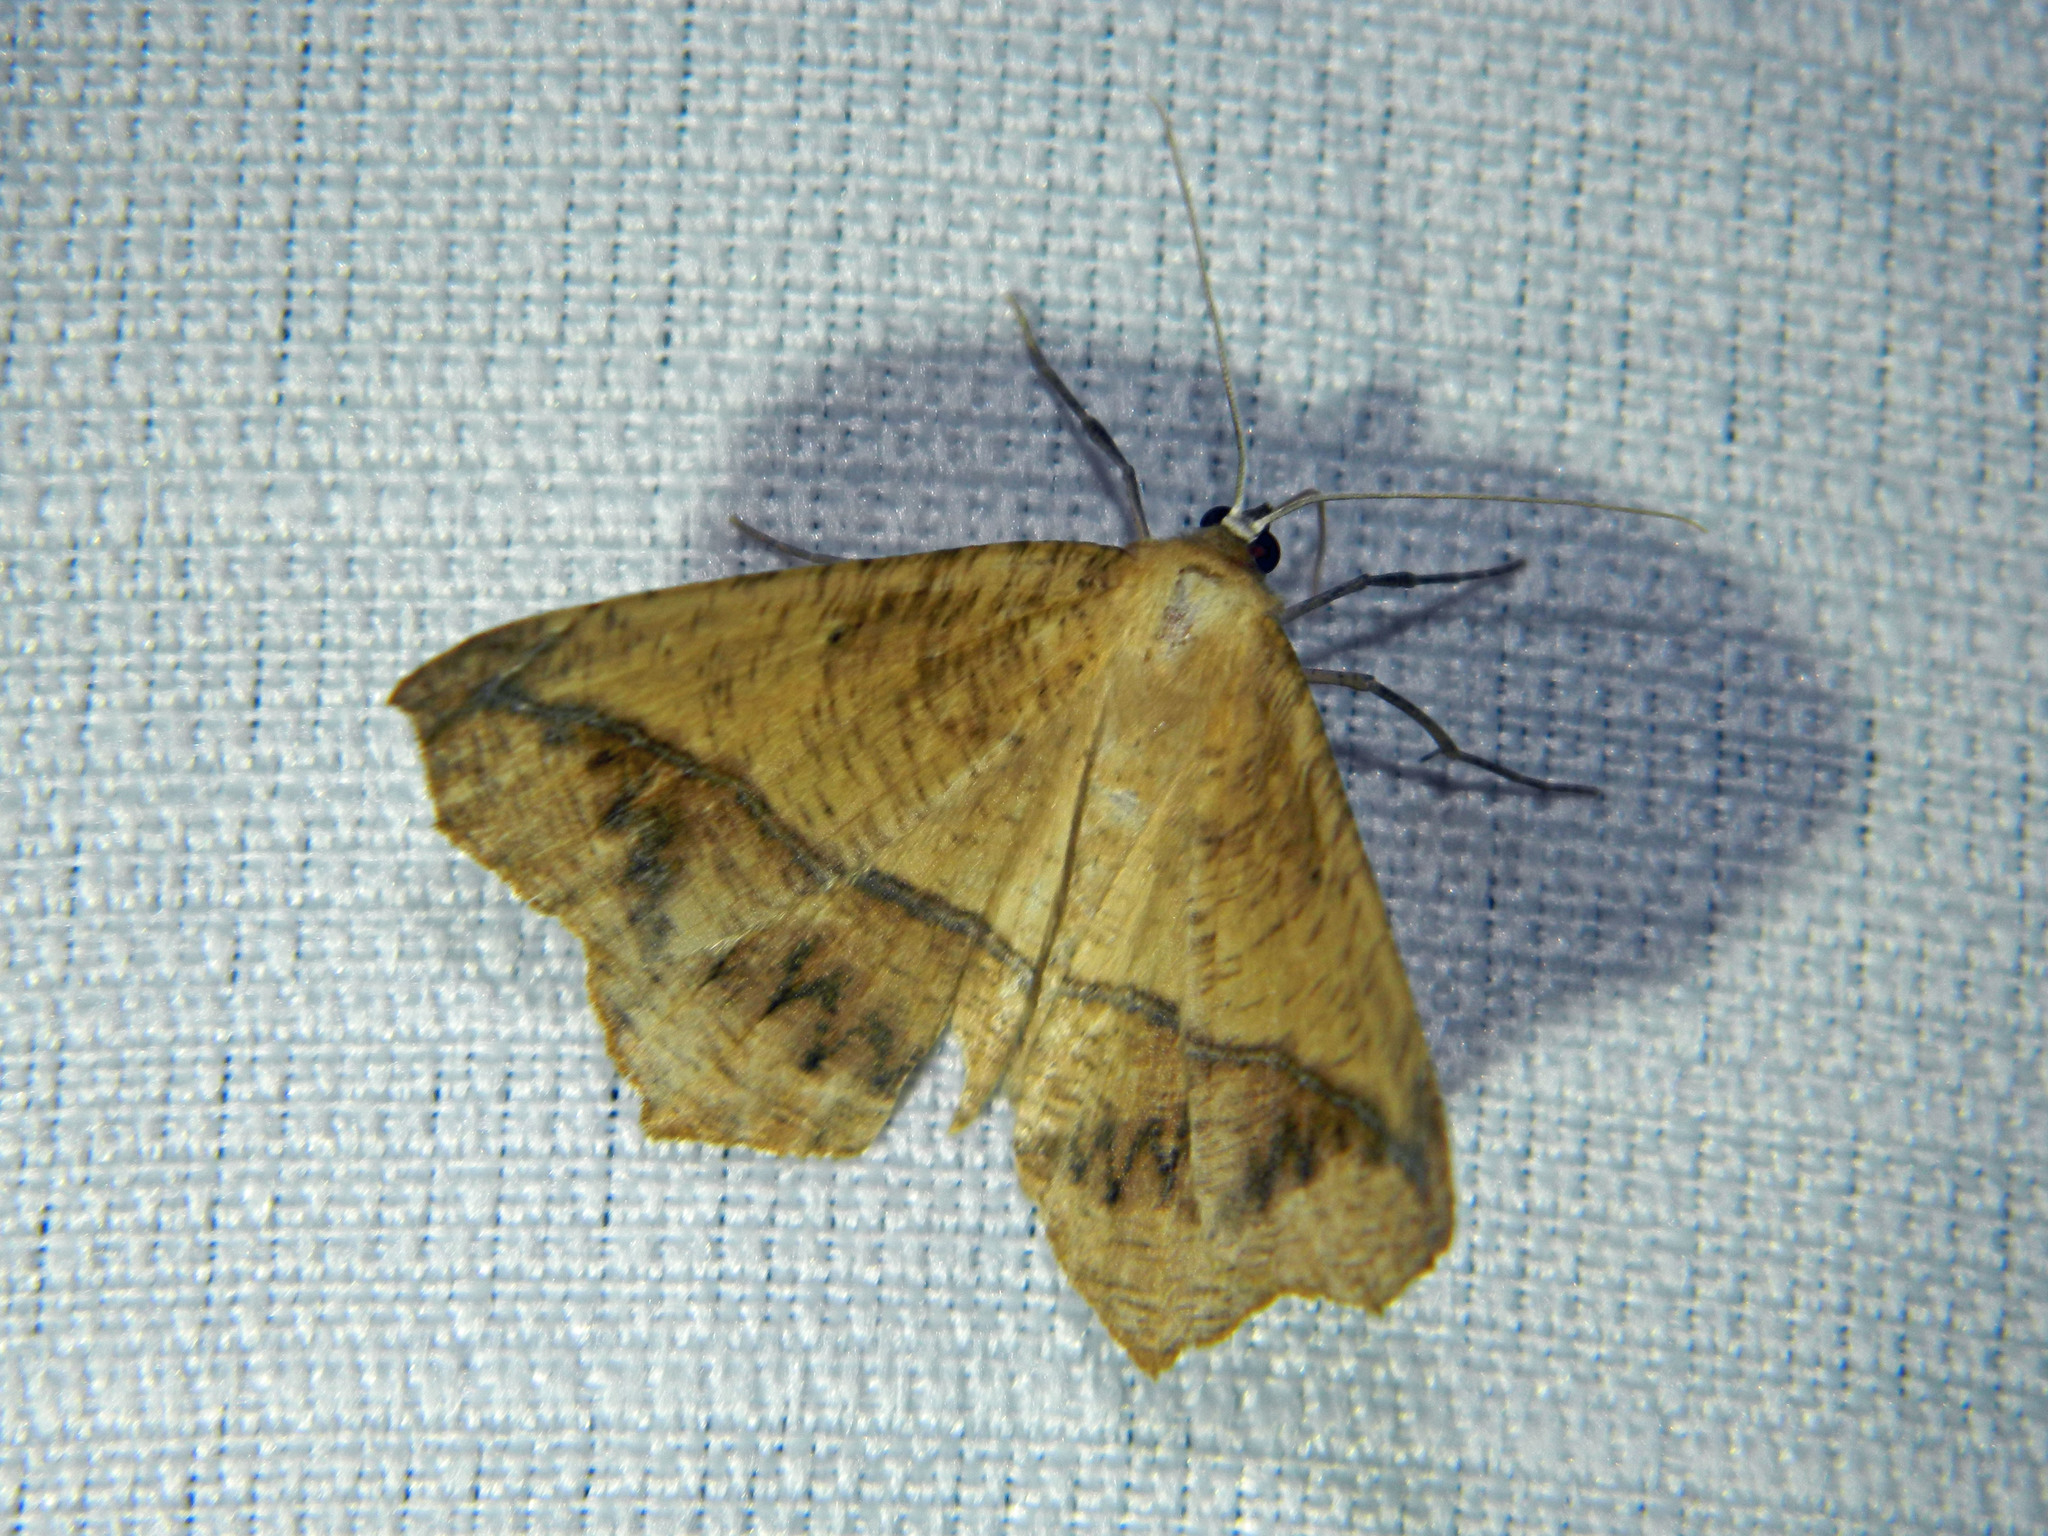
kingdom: Animalia
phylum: Arthropoda
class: Insecta
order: Lepidoptera
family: Geometridae
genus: Prochoerodes
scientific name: Prochoerodes lineola
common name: Large maple spanworm
